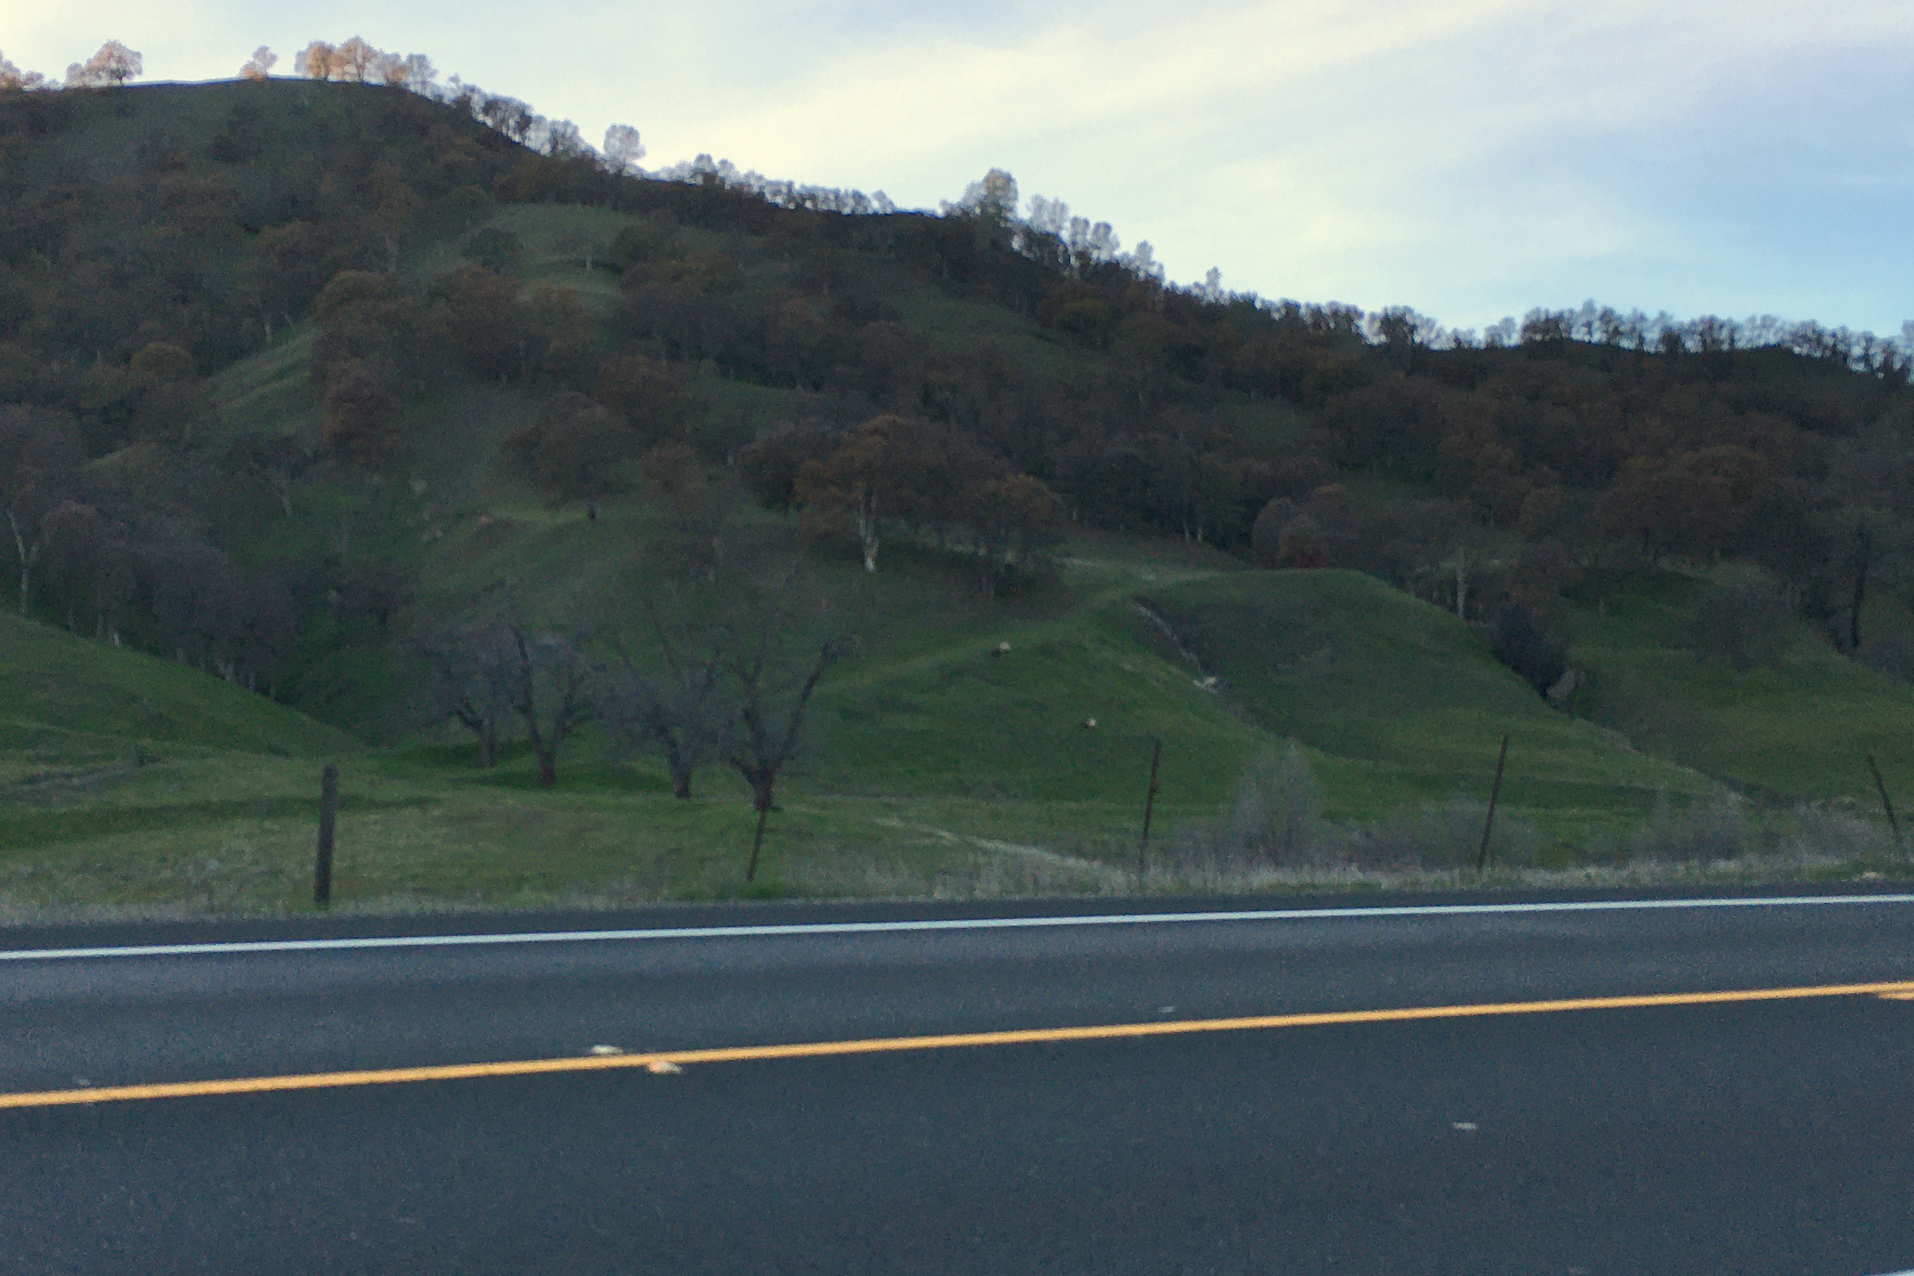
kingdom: Animalia
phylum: Chordata
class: Mammalia
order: Artiodactyla
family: Cervidae
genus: Cervus
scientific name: Cervus elaphus
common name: Red deer
